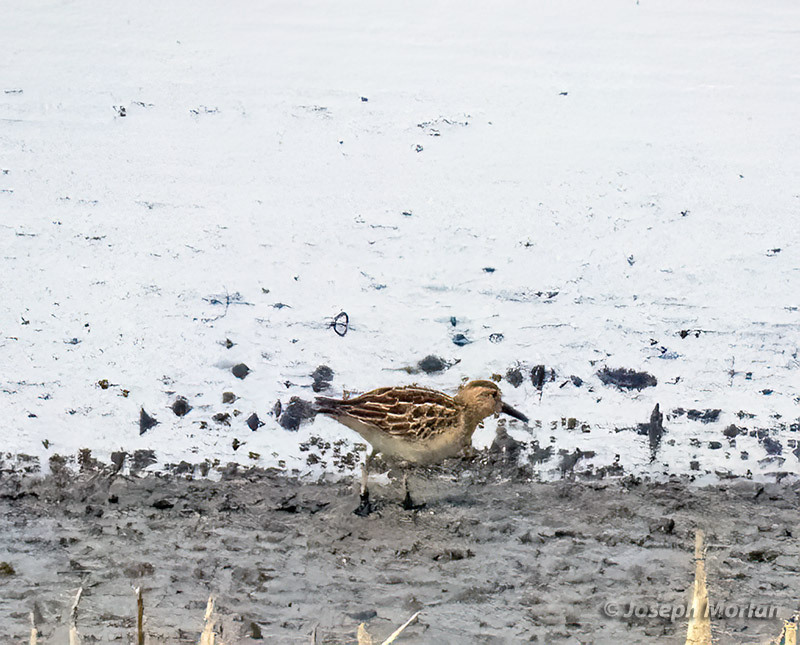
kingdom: Animalia
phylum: Chordata
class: Aves
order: Charadriiformes
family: Scolopacidae
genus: Calidris
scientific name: Calidris melanotos
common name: Pectoral sandpiper
